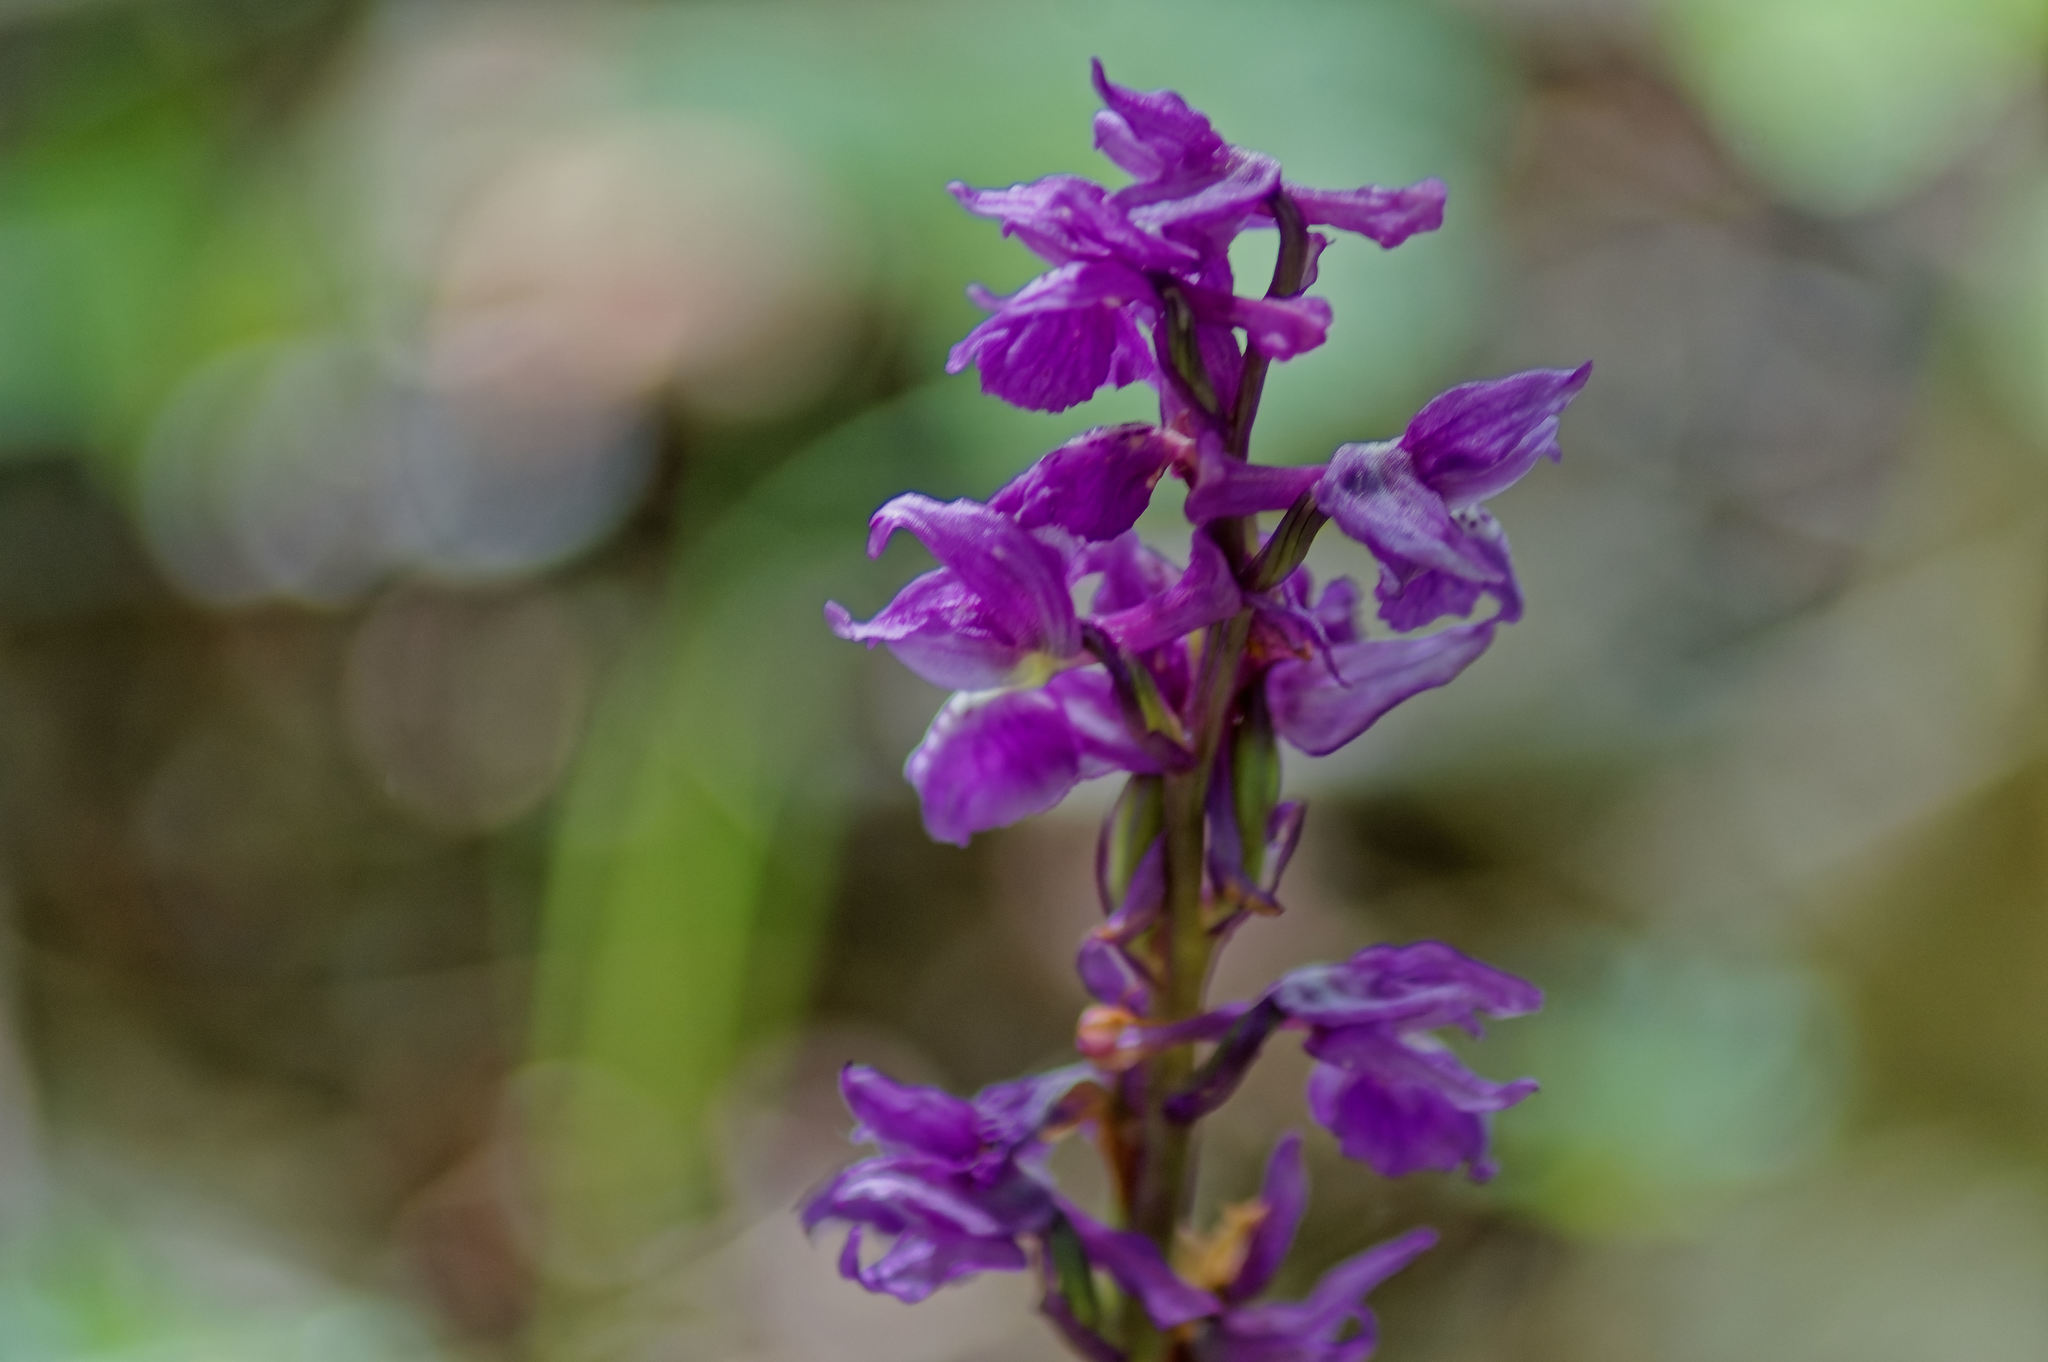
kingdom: Plantae
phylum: Tracheophyta
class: Liliopsida
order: Asparagales
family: Orchidaceae
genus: Orchis
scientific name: Orchis mascula
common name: Early-purple orchid
